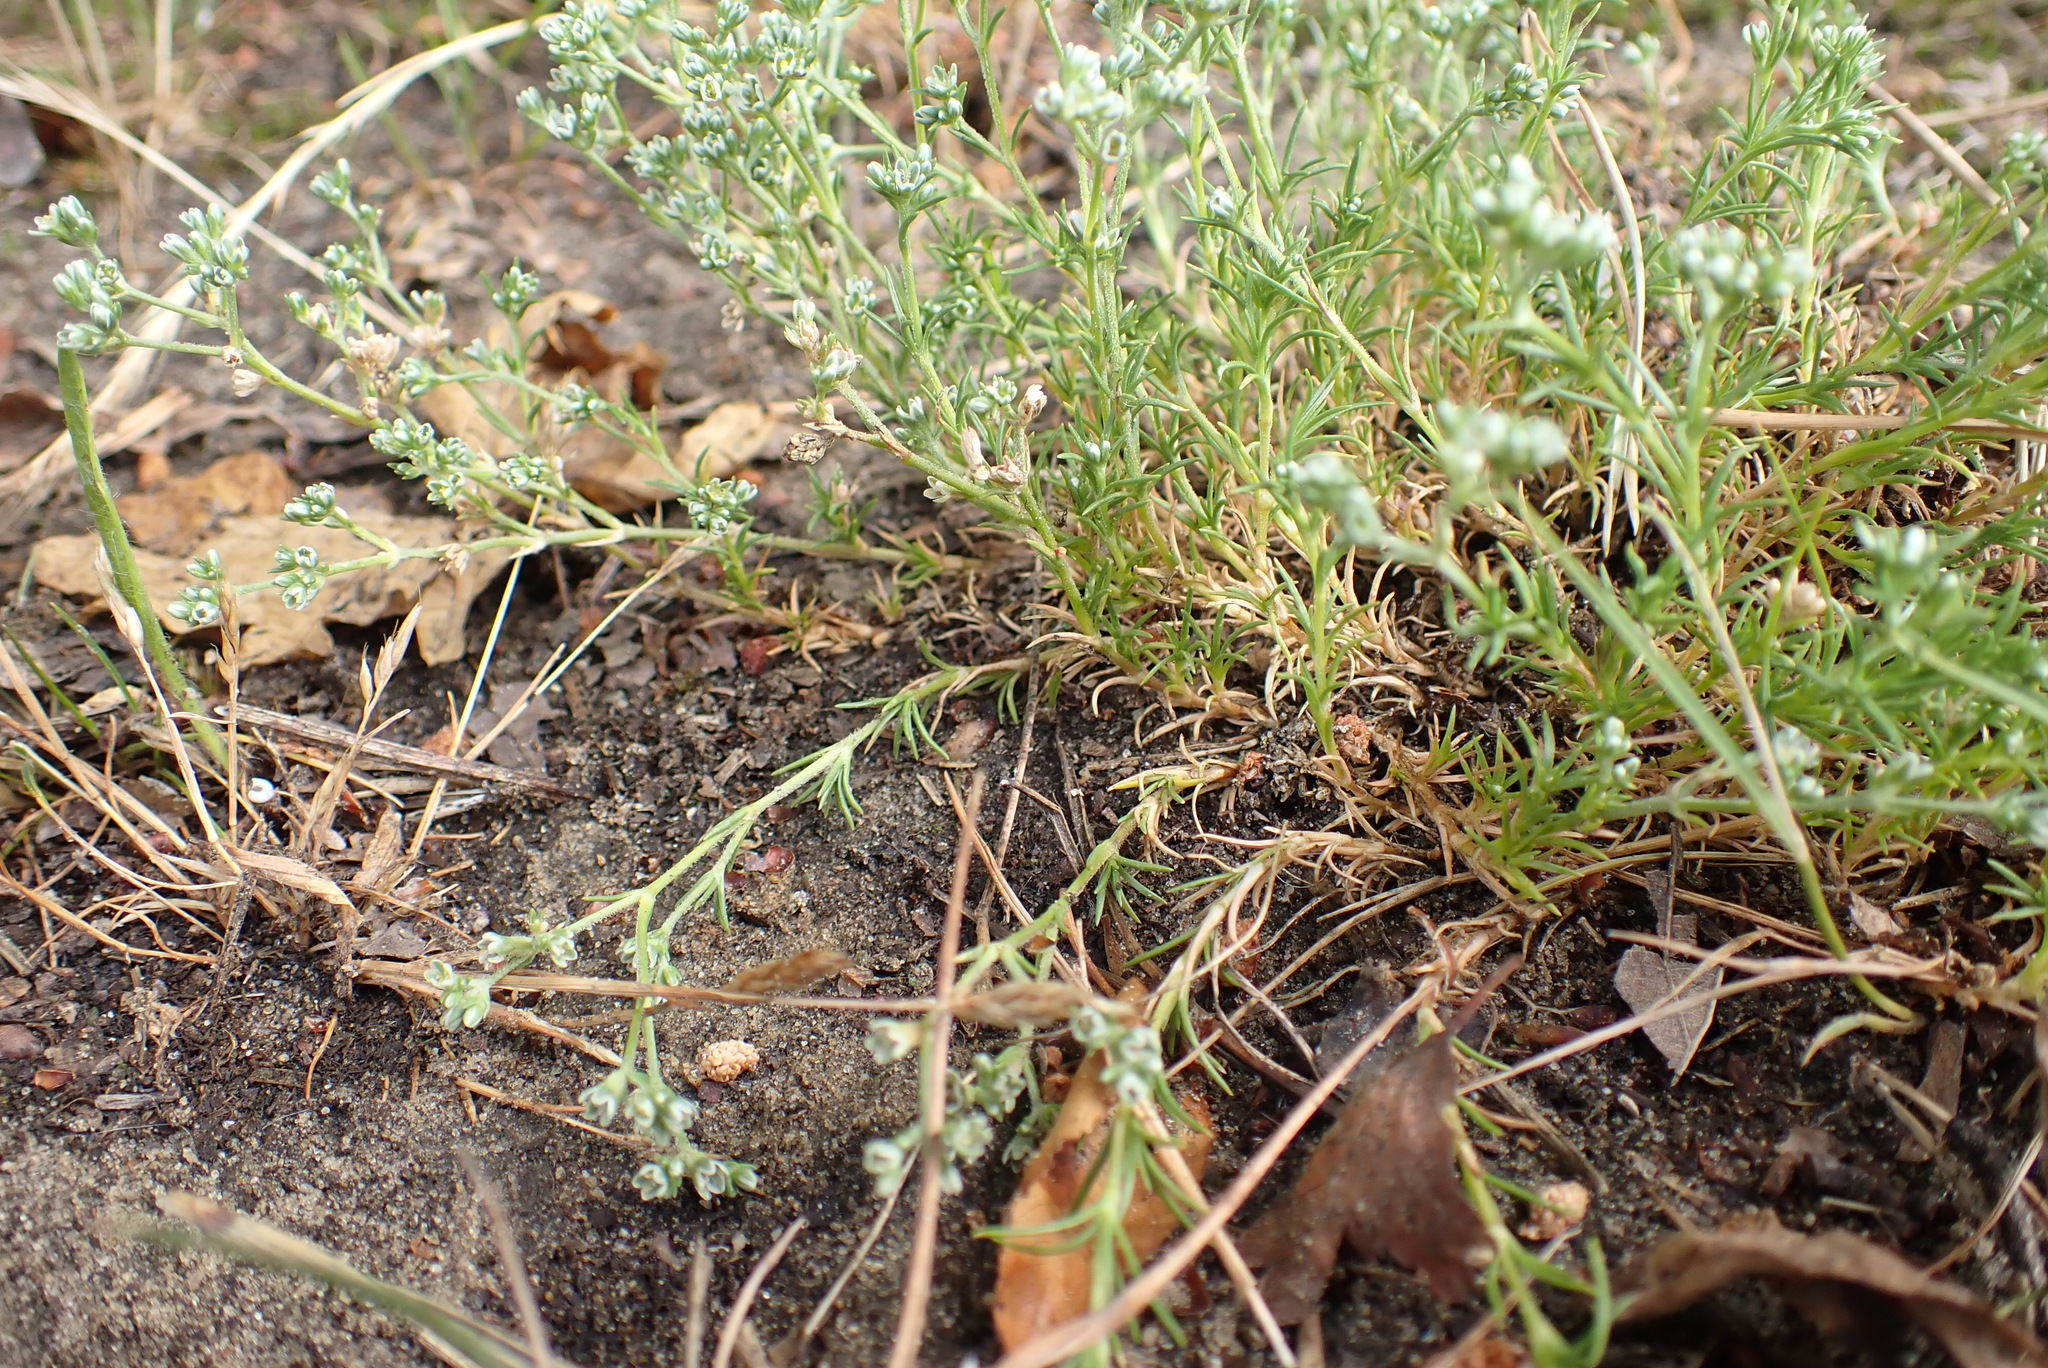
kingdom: Plantae
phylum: Tracheophyta
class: Magnoliopsida
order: Caryophyllales
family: Caryophyllaceae
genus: Scleranthus
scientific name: Scleranthus perennis
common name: Perennial knawel
